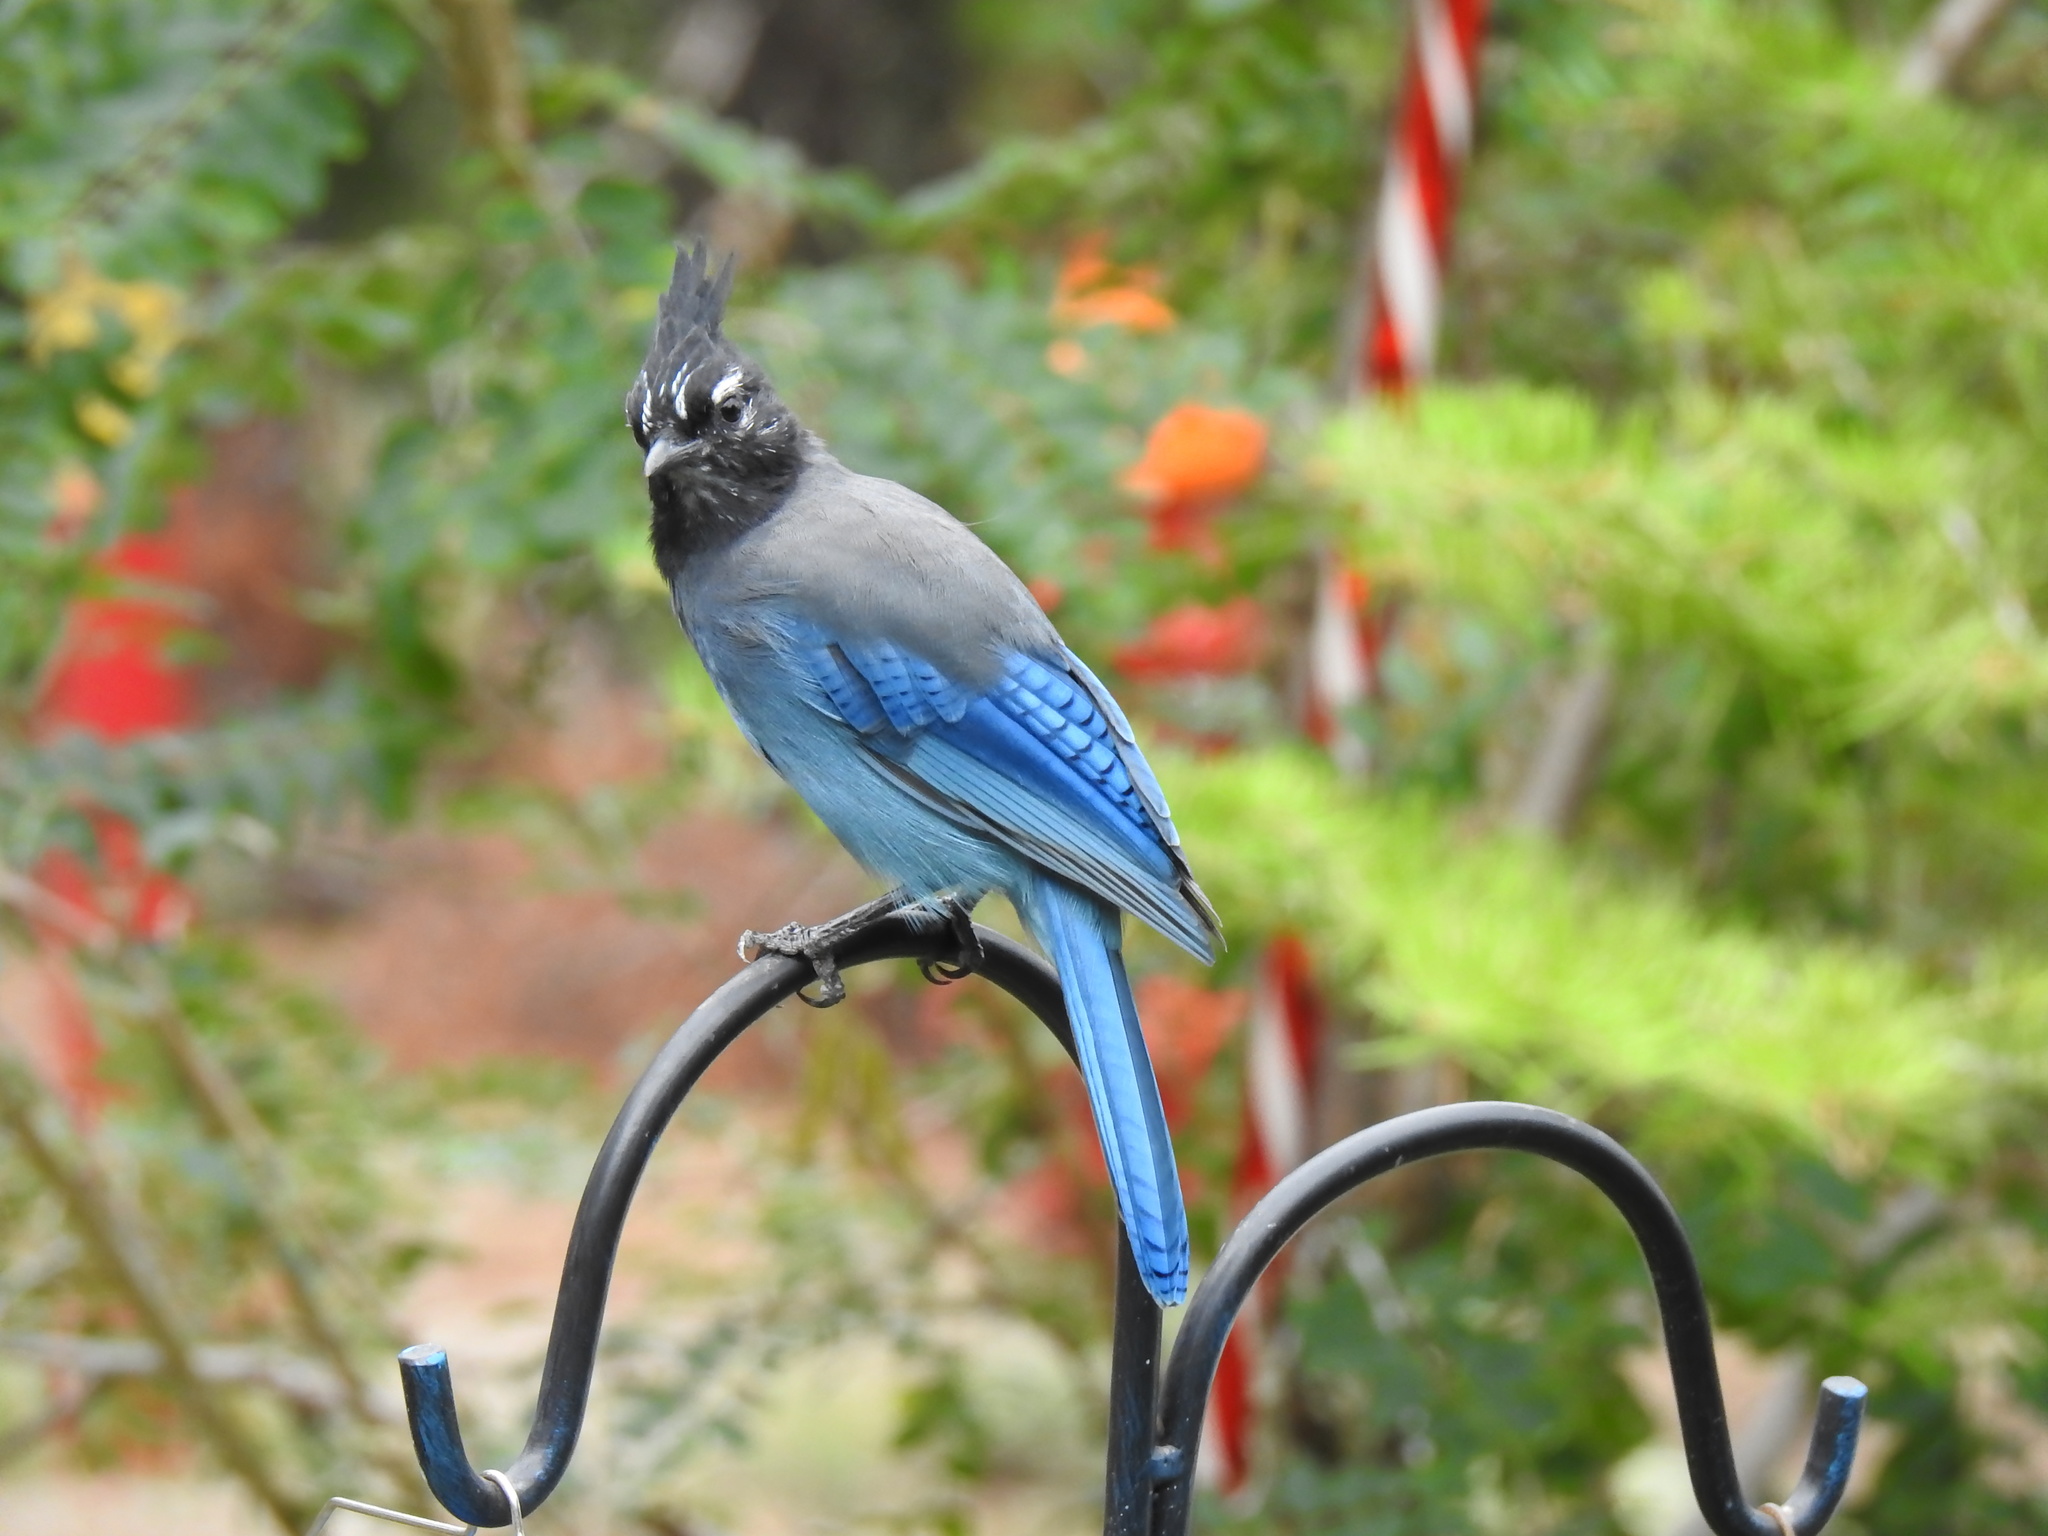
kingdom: Animalia
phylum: Chordata
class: Aves
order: Passeriformes
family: Corvidae
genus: Cyanocitta
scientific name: Cyanocitta stelleri
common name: Steller's jay
